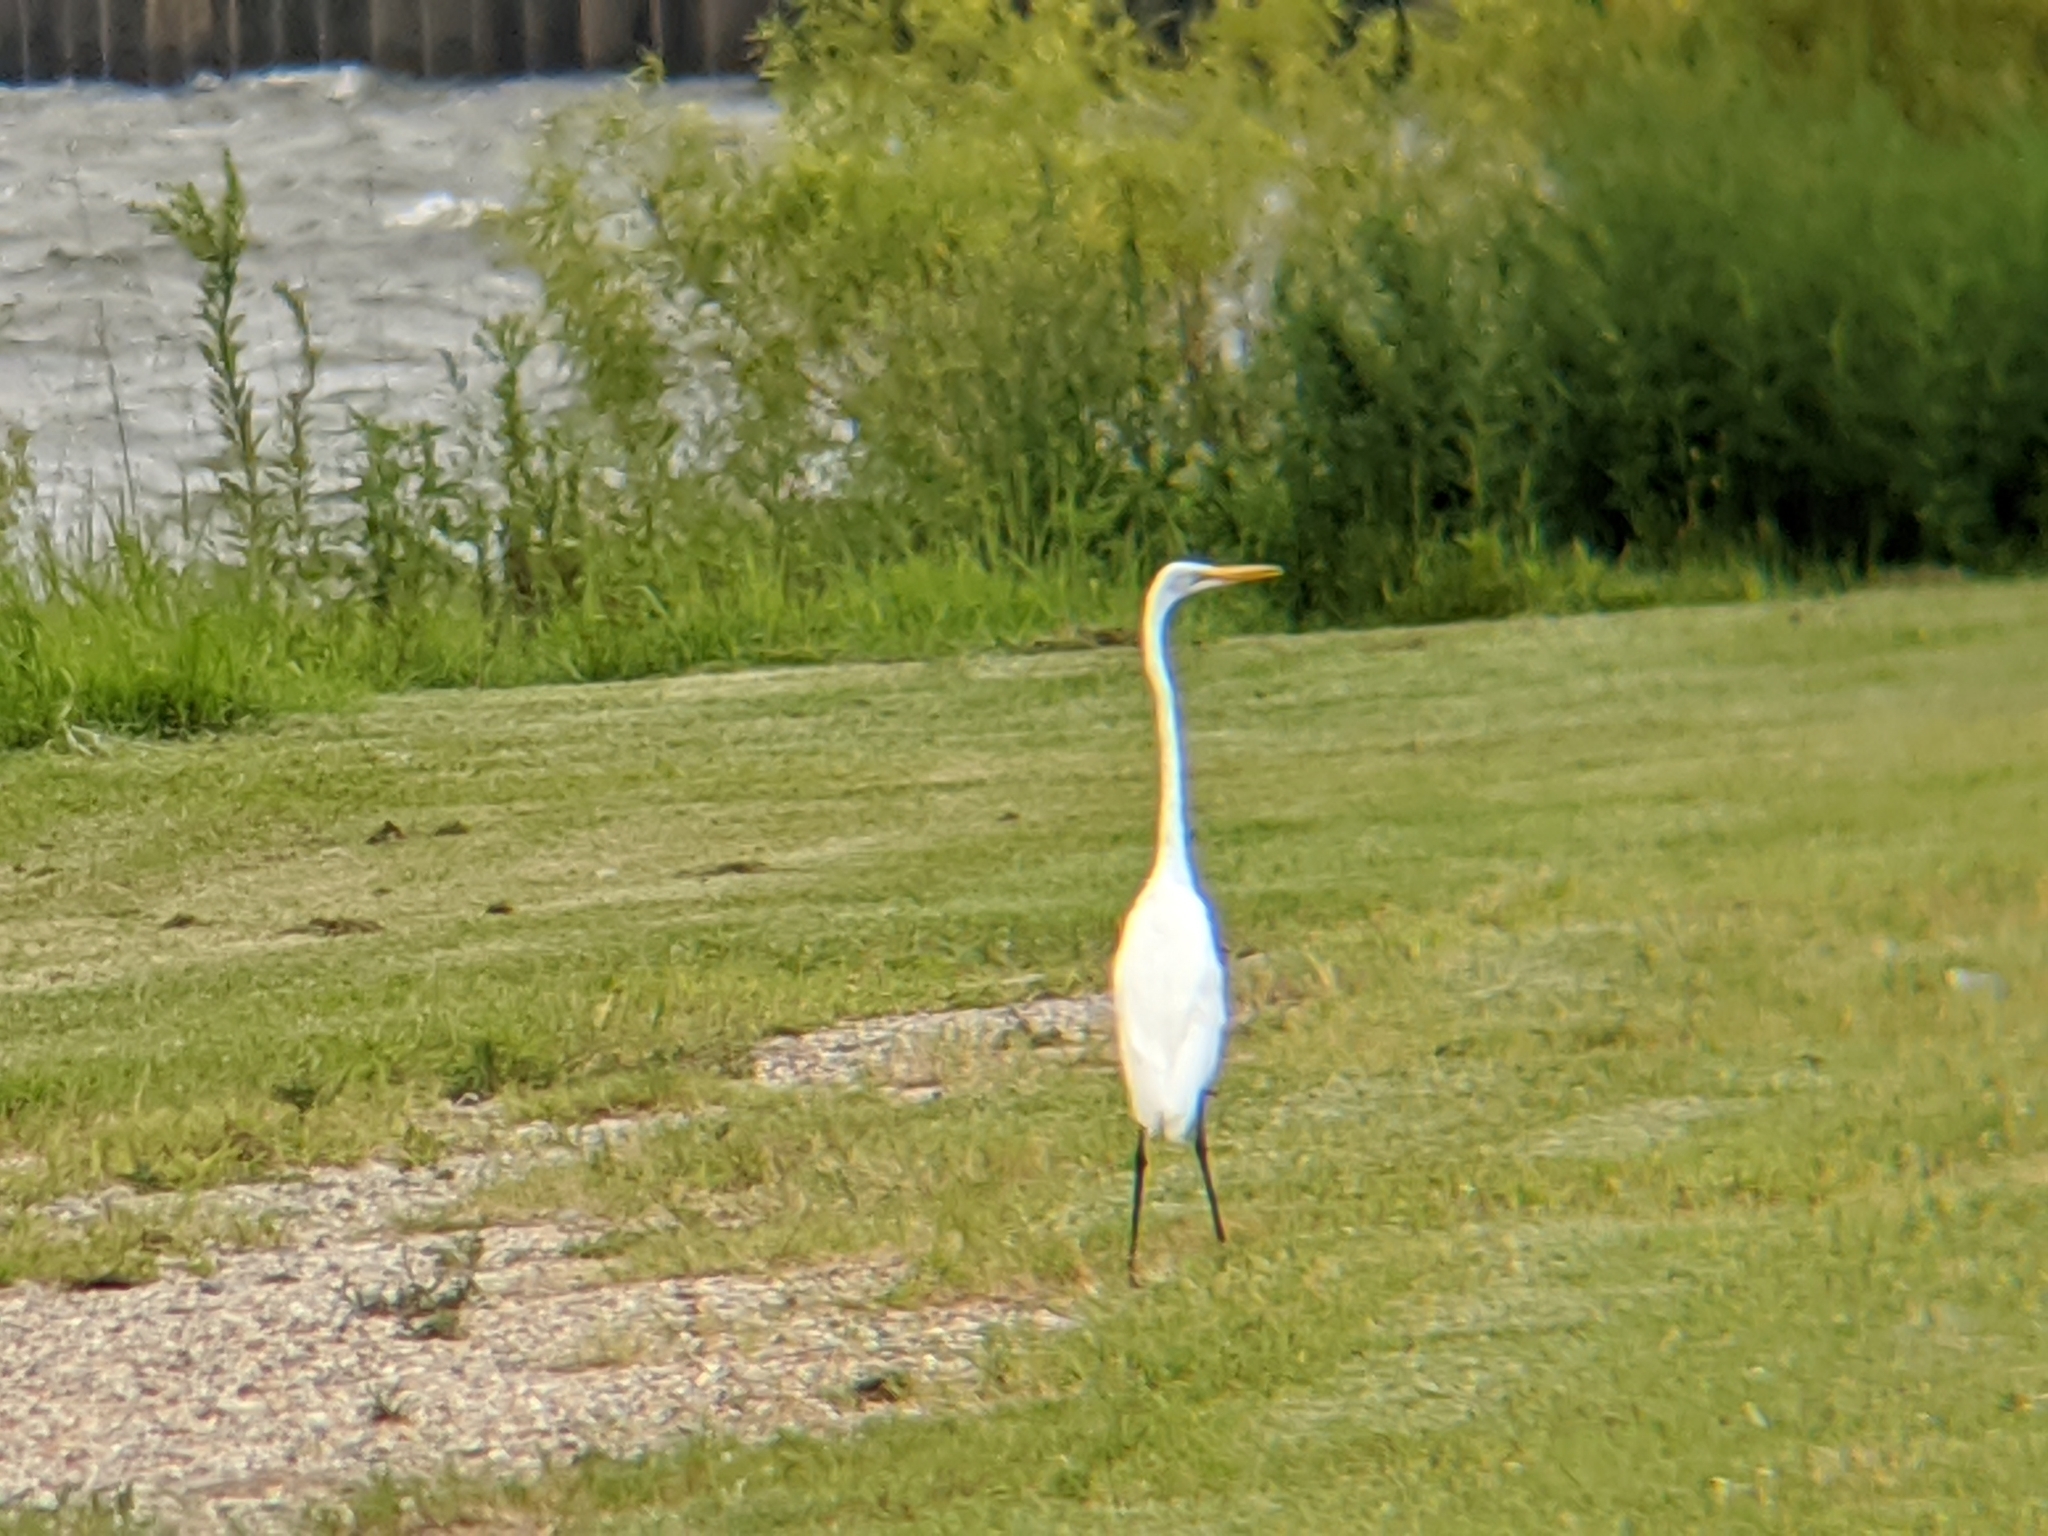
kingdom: Animalia
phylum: Chordata
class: Aves
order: Pelecaniformes
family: Ardeidae
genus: Ardea
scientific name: Ardea alba
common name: Great egret
